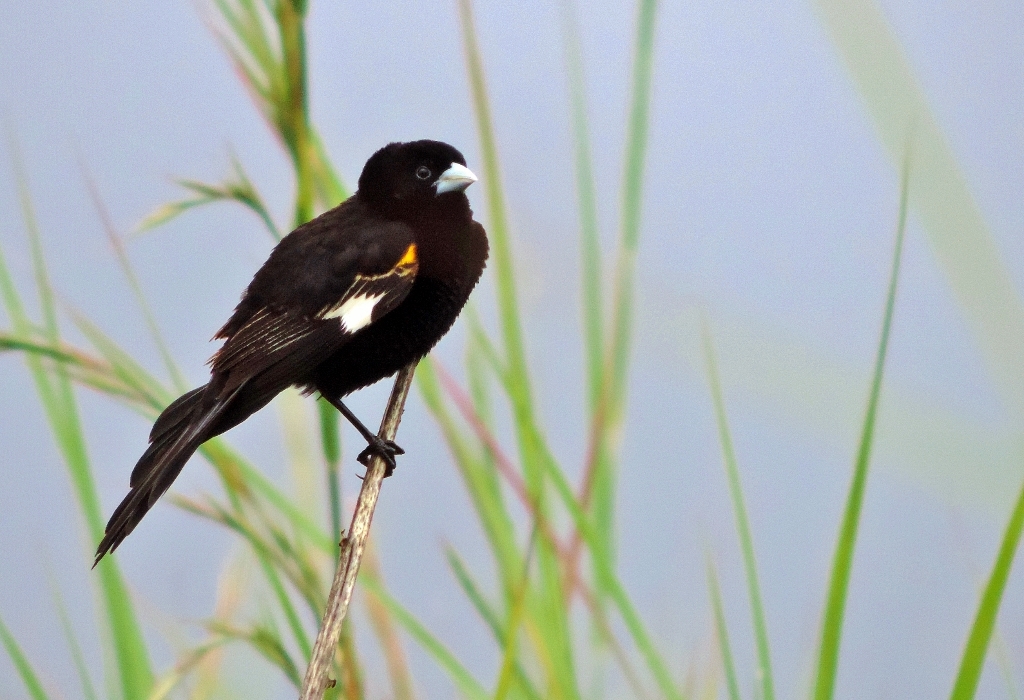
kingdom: Animalia
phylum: Chordata
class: Aves
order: Passeriformes
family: Ploceidae
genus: Euplectes
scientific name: Euplectes albonotatus
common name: White-winged widowbird
